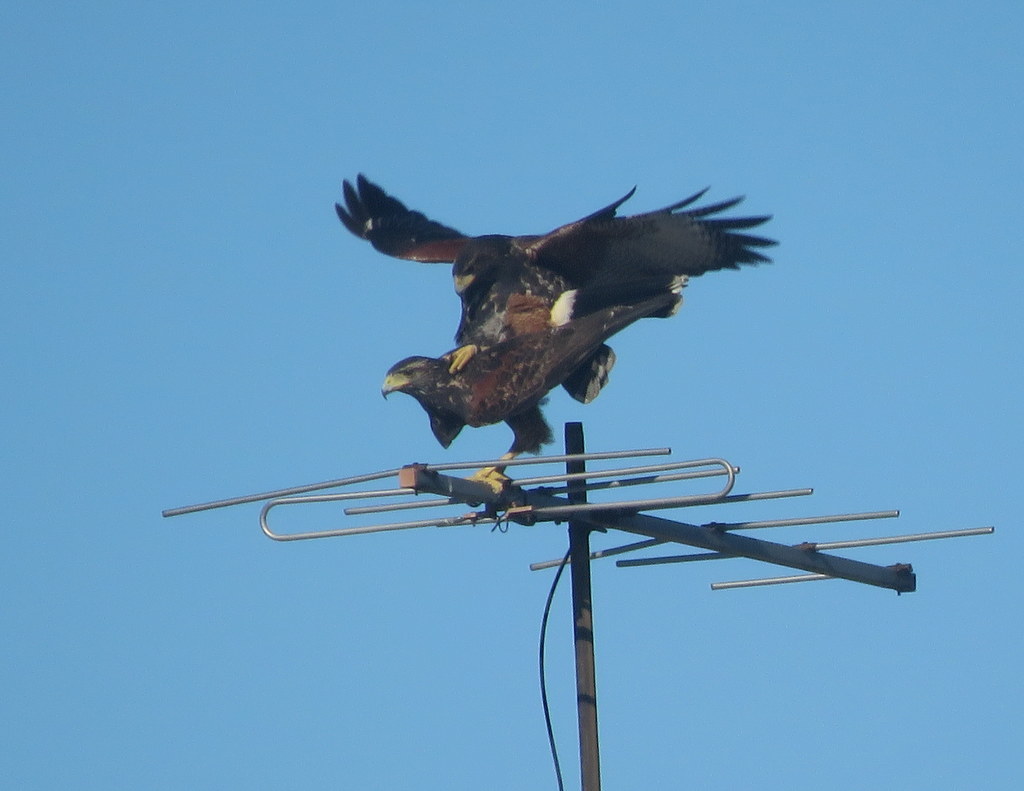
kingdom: Animalia
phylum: Chordata
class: Aves
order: Accipitriformes
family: Accipitridae
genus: Parabuteo
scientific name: Parabuteo unicinctus
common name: Harris's hawk
